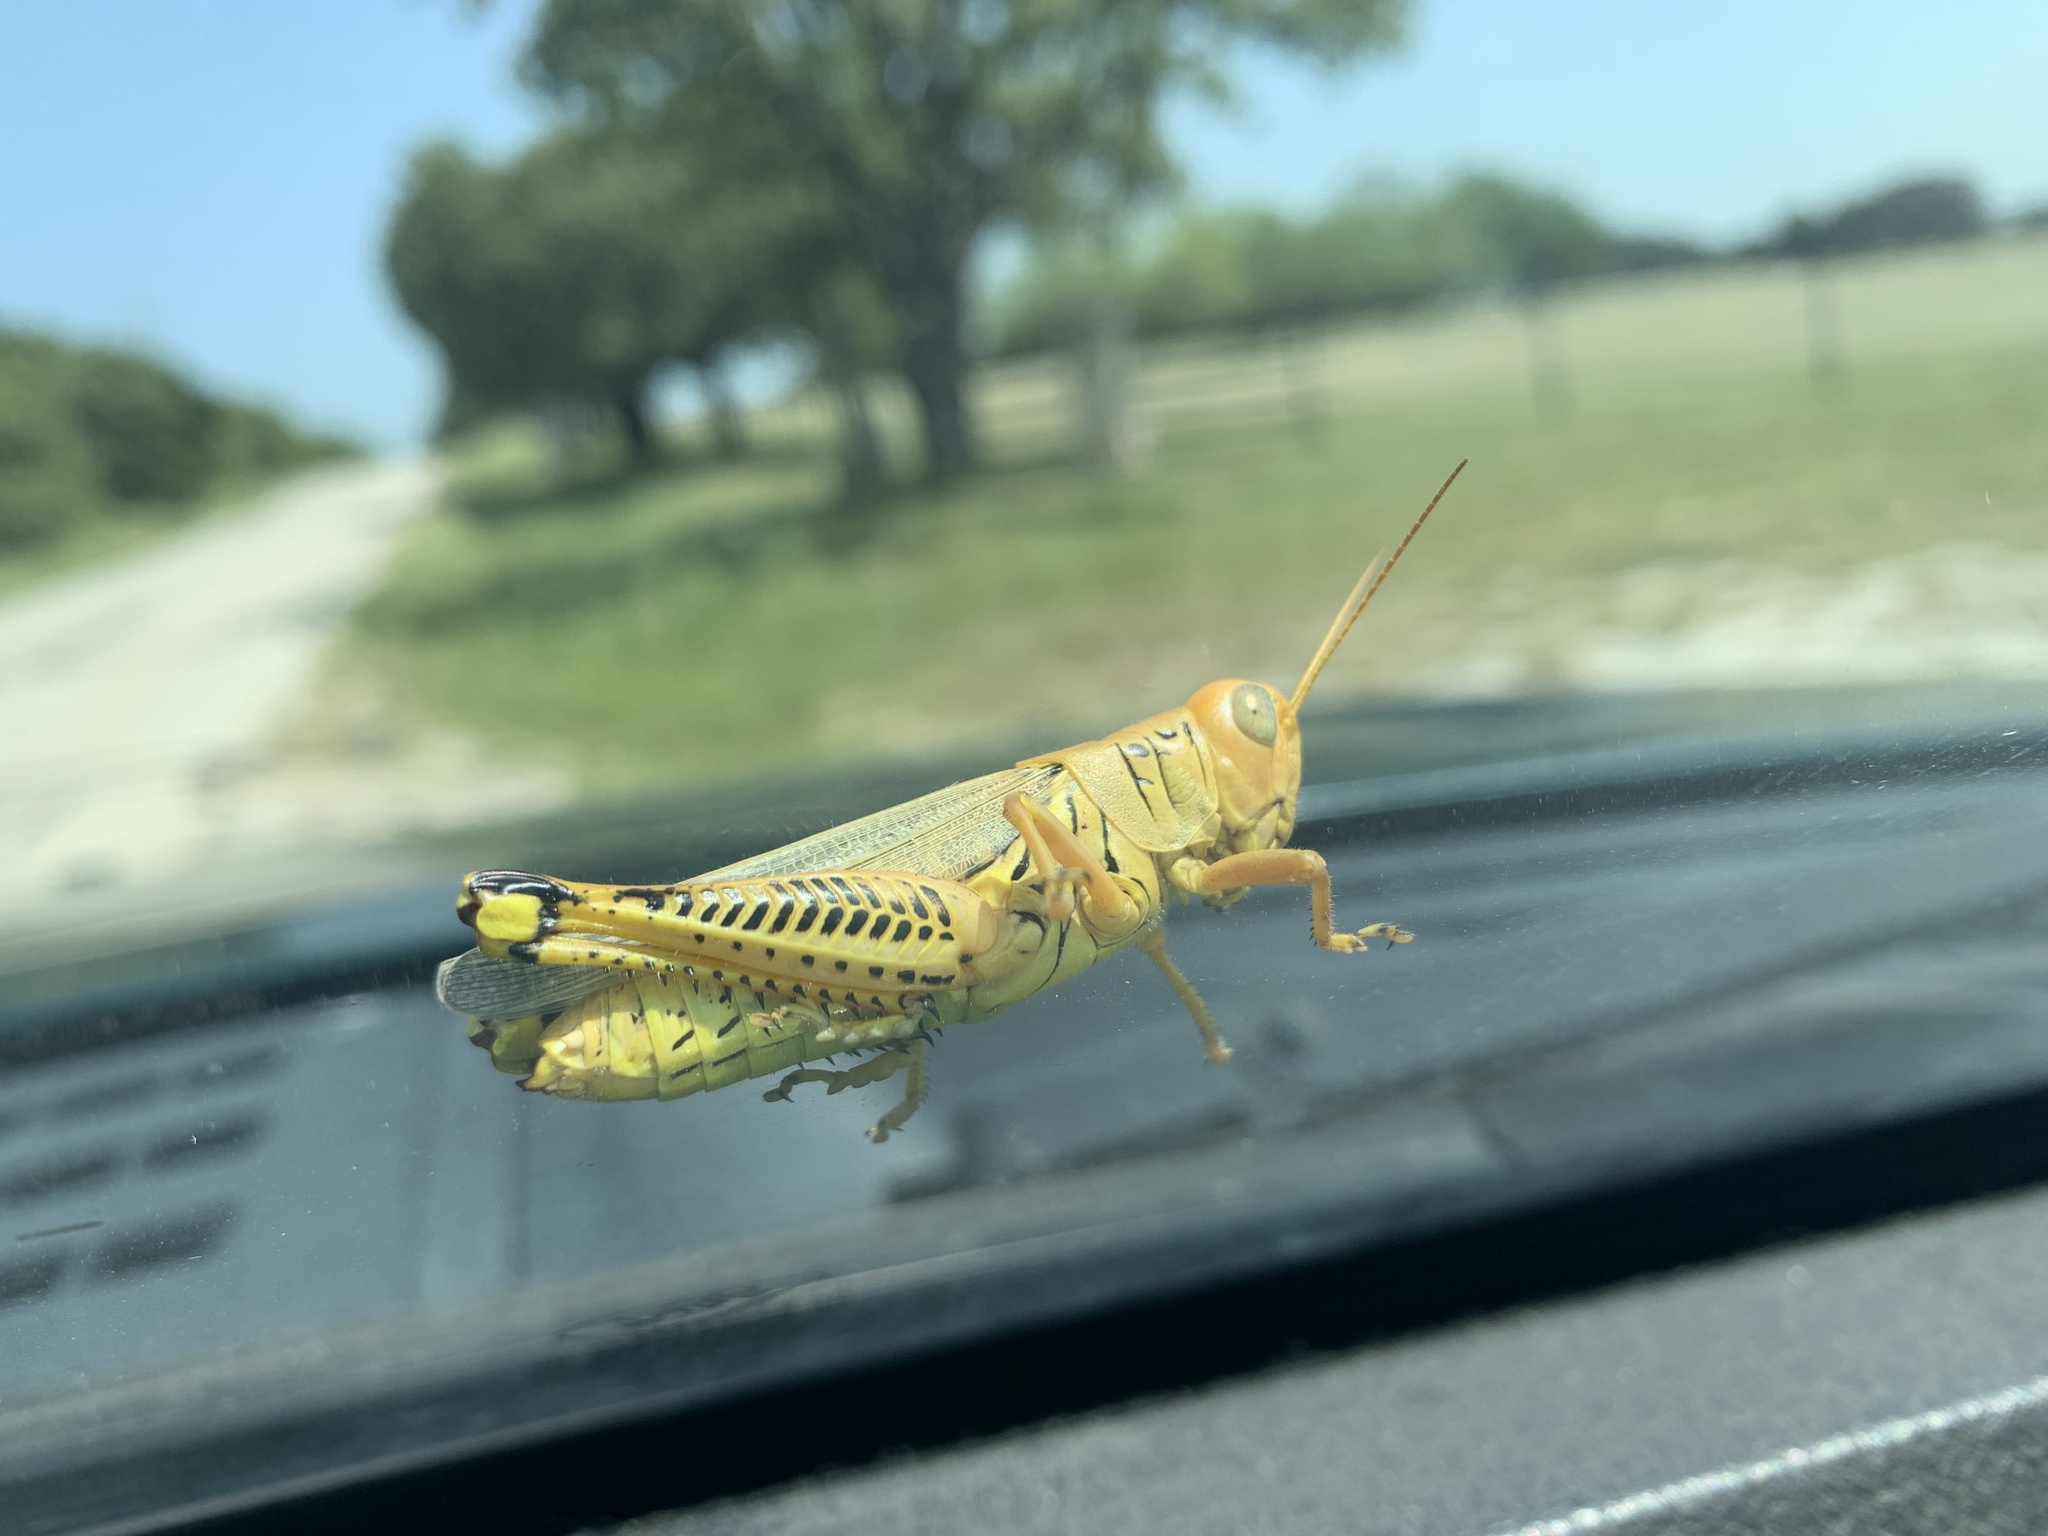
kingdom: Animalia
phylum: Arthropoda
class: Insecta
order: Orthoptera
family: Acrididae
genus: Melanoplus
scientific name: Melanoplus differentialis
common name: Differential grasshopper
